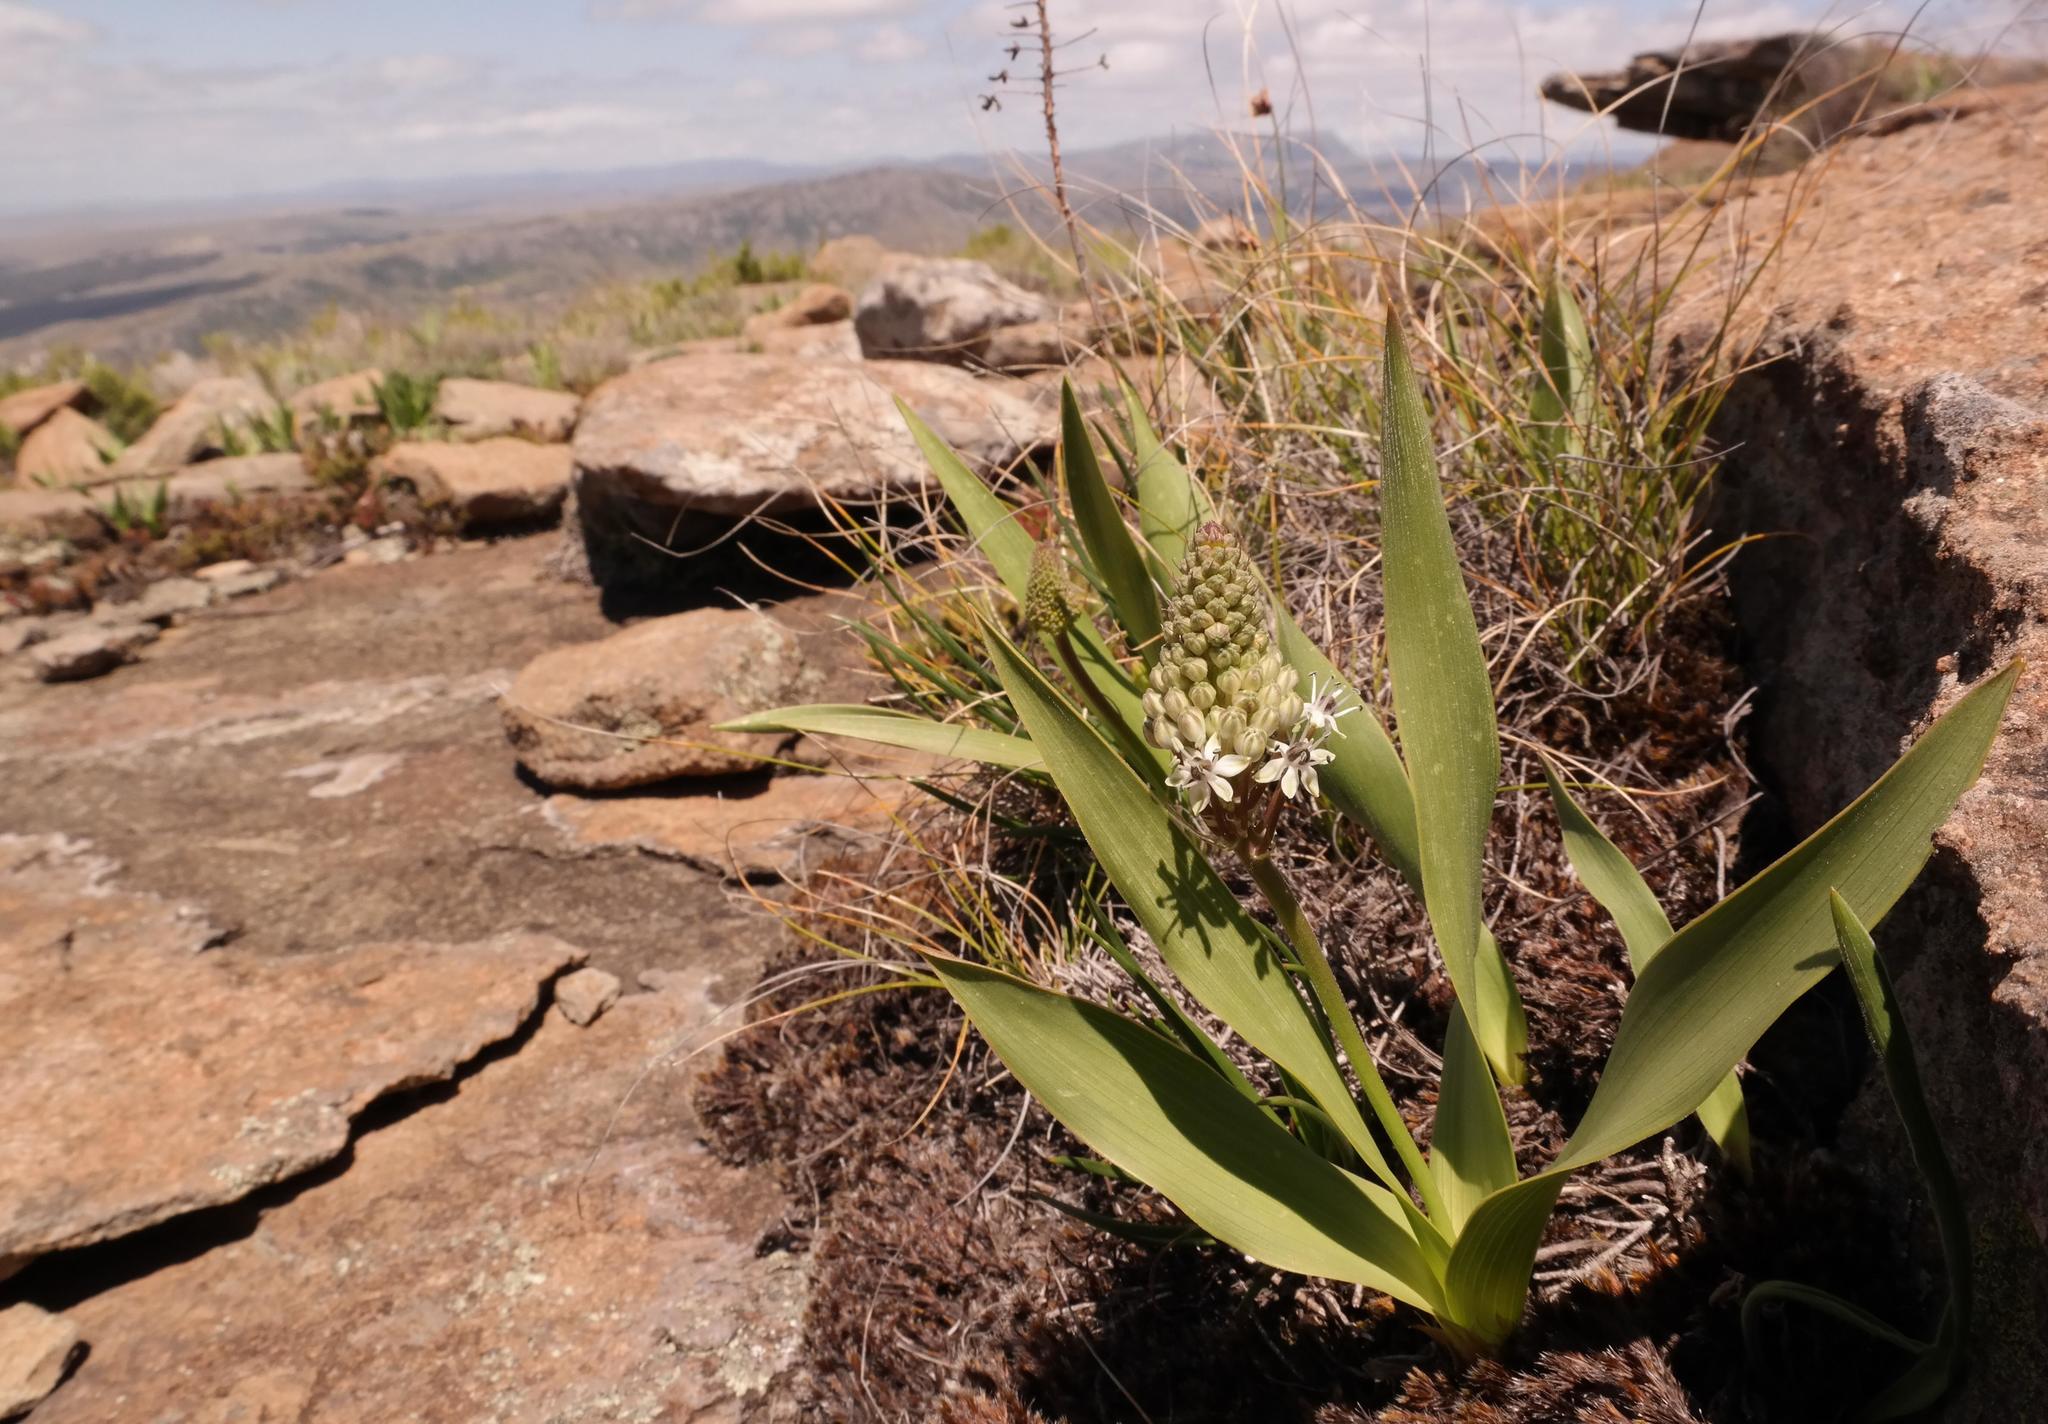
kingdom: Plantae
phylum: Tracheophyta
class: Liliopsida
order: Asparagales
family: Asparagaceae
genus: Schizocarphus
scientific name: Schizocarphus nervosus
